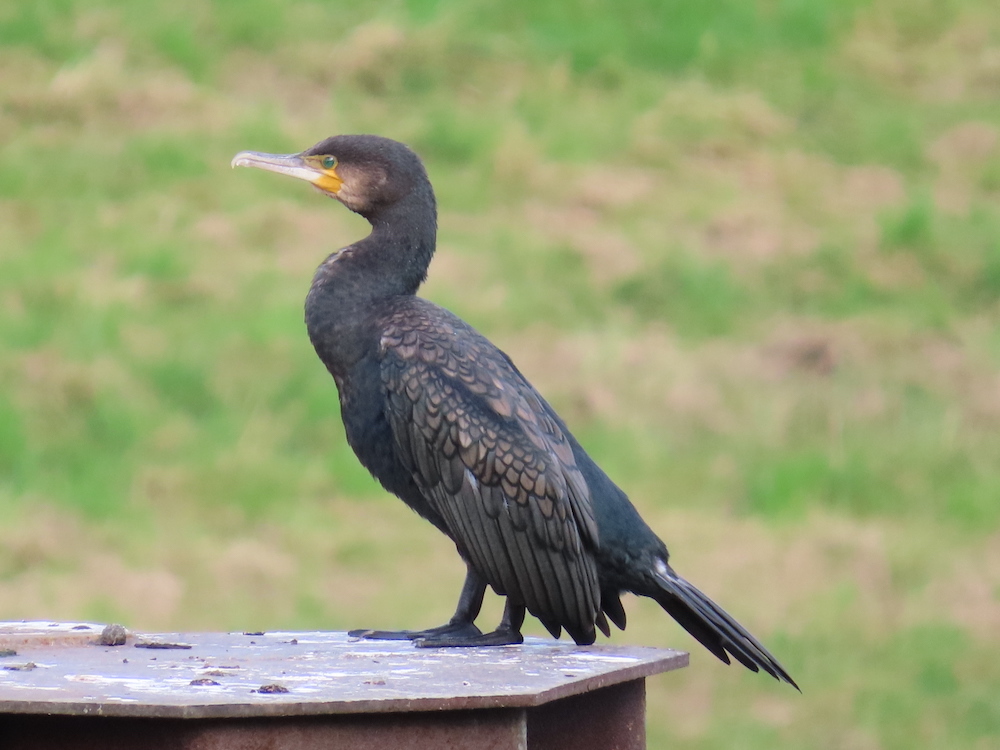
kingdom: Animalia
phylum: Chordata
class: Aves
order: Suliformes
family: Phalacrocoracidae
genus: Phalacrocorax
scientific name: Phalacrocorax carbo
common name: Great cormorant
